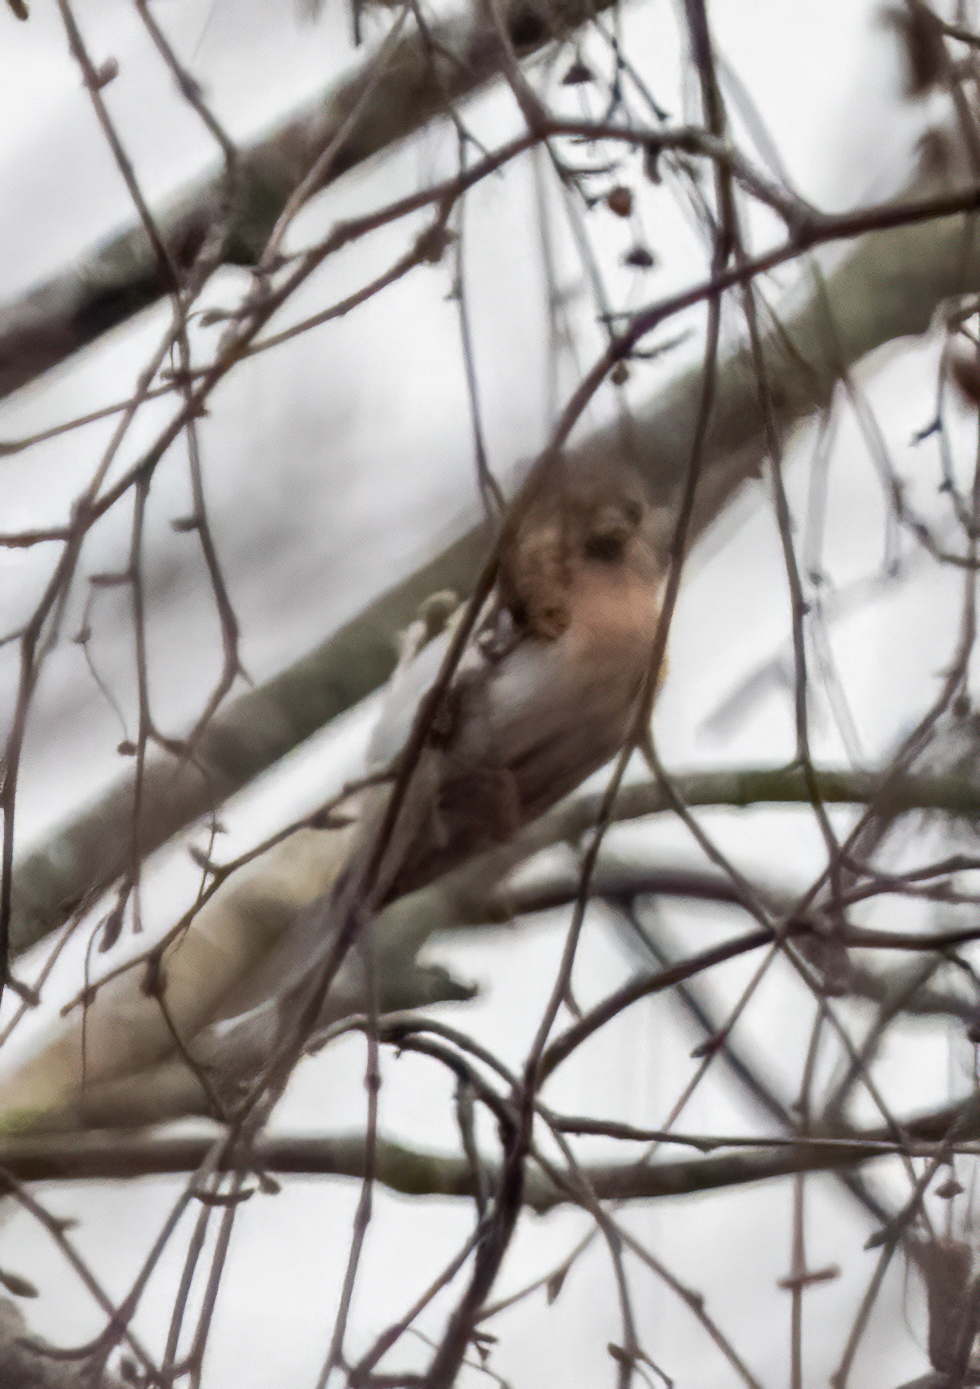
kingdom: Animalia
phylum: Chordata
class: Aves
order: Passeriformes
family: Fringillidae
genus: Acanthis
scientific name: Acanthis flammea
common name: Common redpoll
